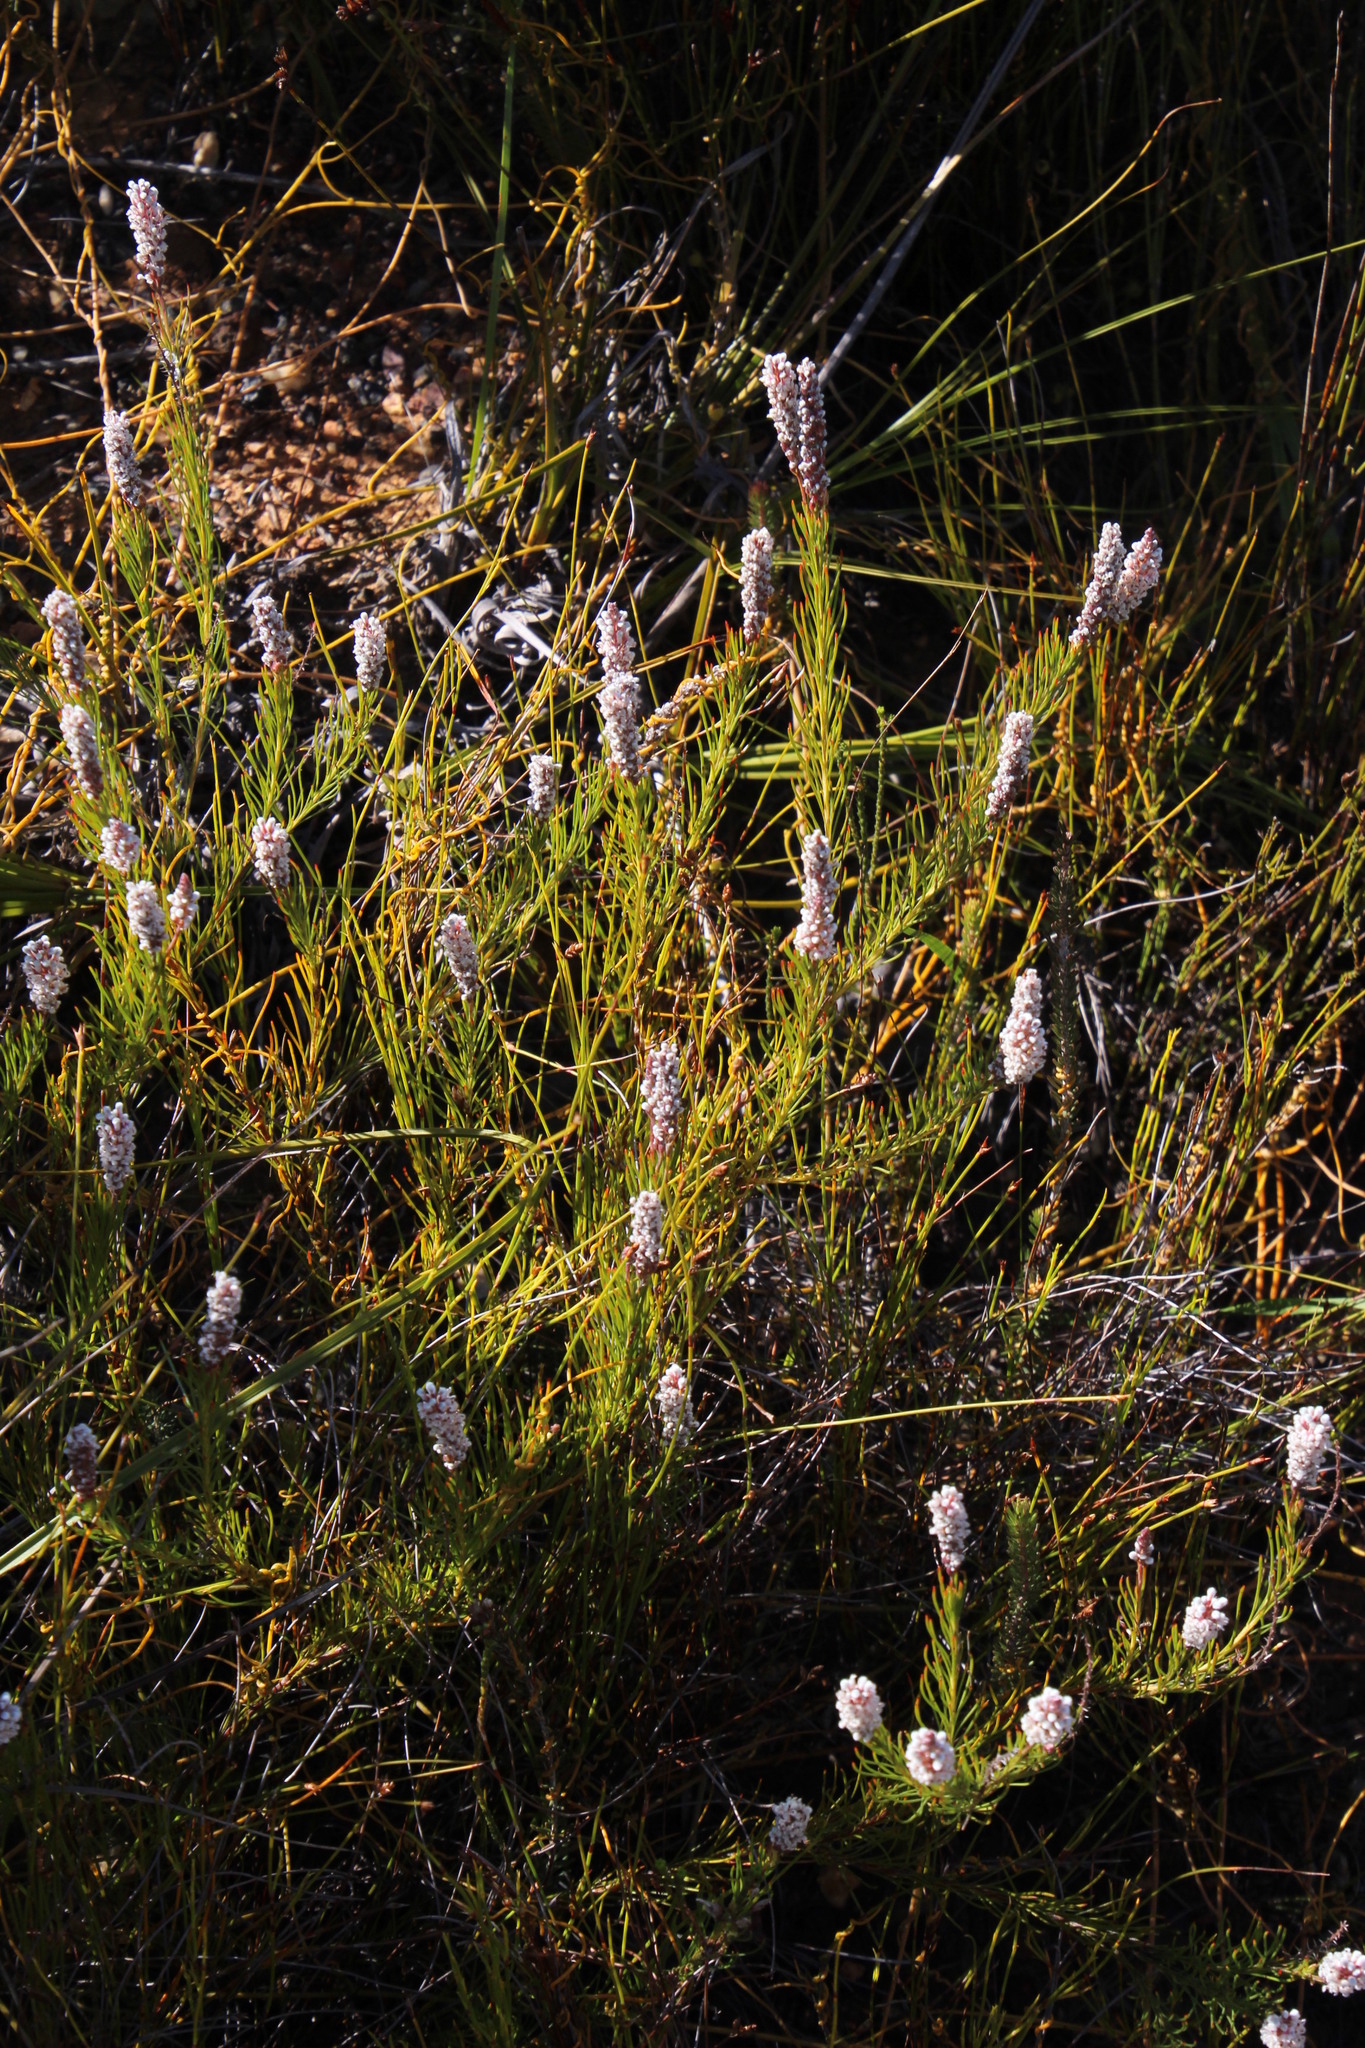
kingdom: Plantae
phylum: Tracheophyta
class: Magnoliopsida
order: Proteales
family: Proteaceae
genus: Spatalla
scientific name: Spatalla racemosa
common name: Lax-stalked spoon
